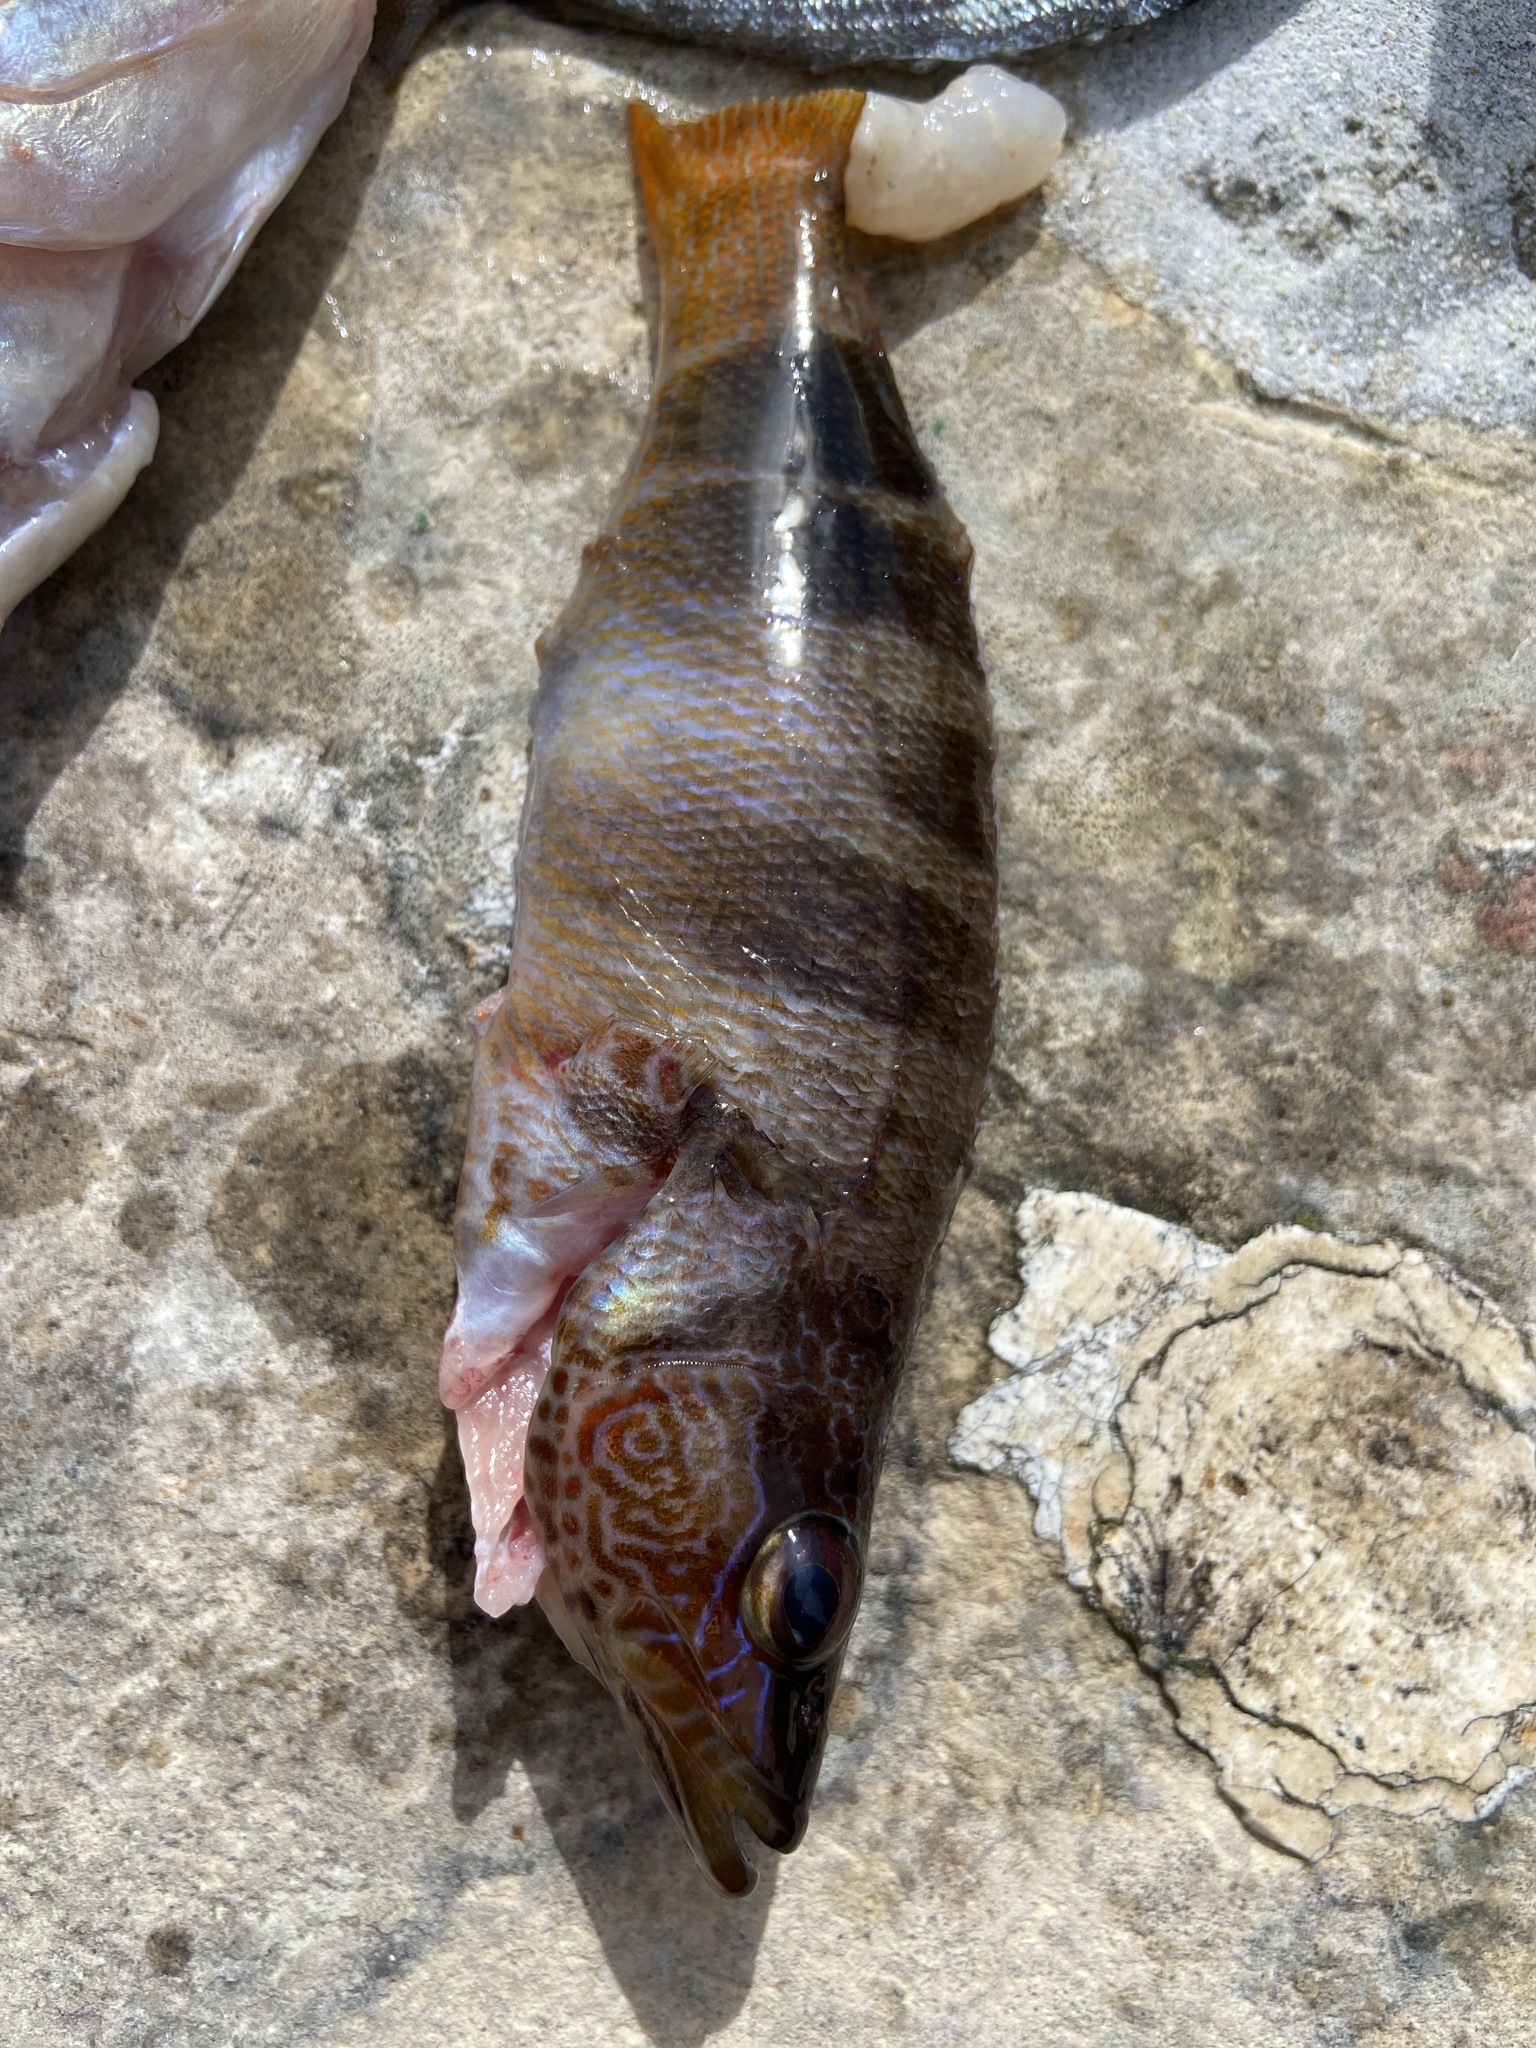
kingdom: Animalia
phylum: Chordata
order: Perciformes
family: Serranidae
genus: Serranus
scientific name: Serranus scriba
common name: Painted comber
